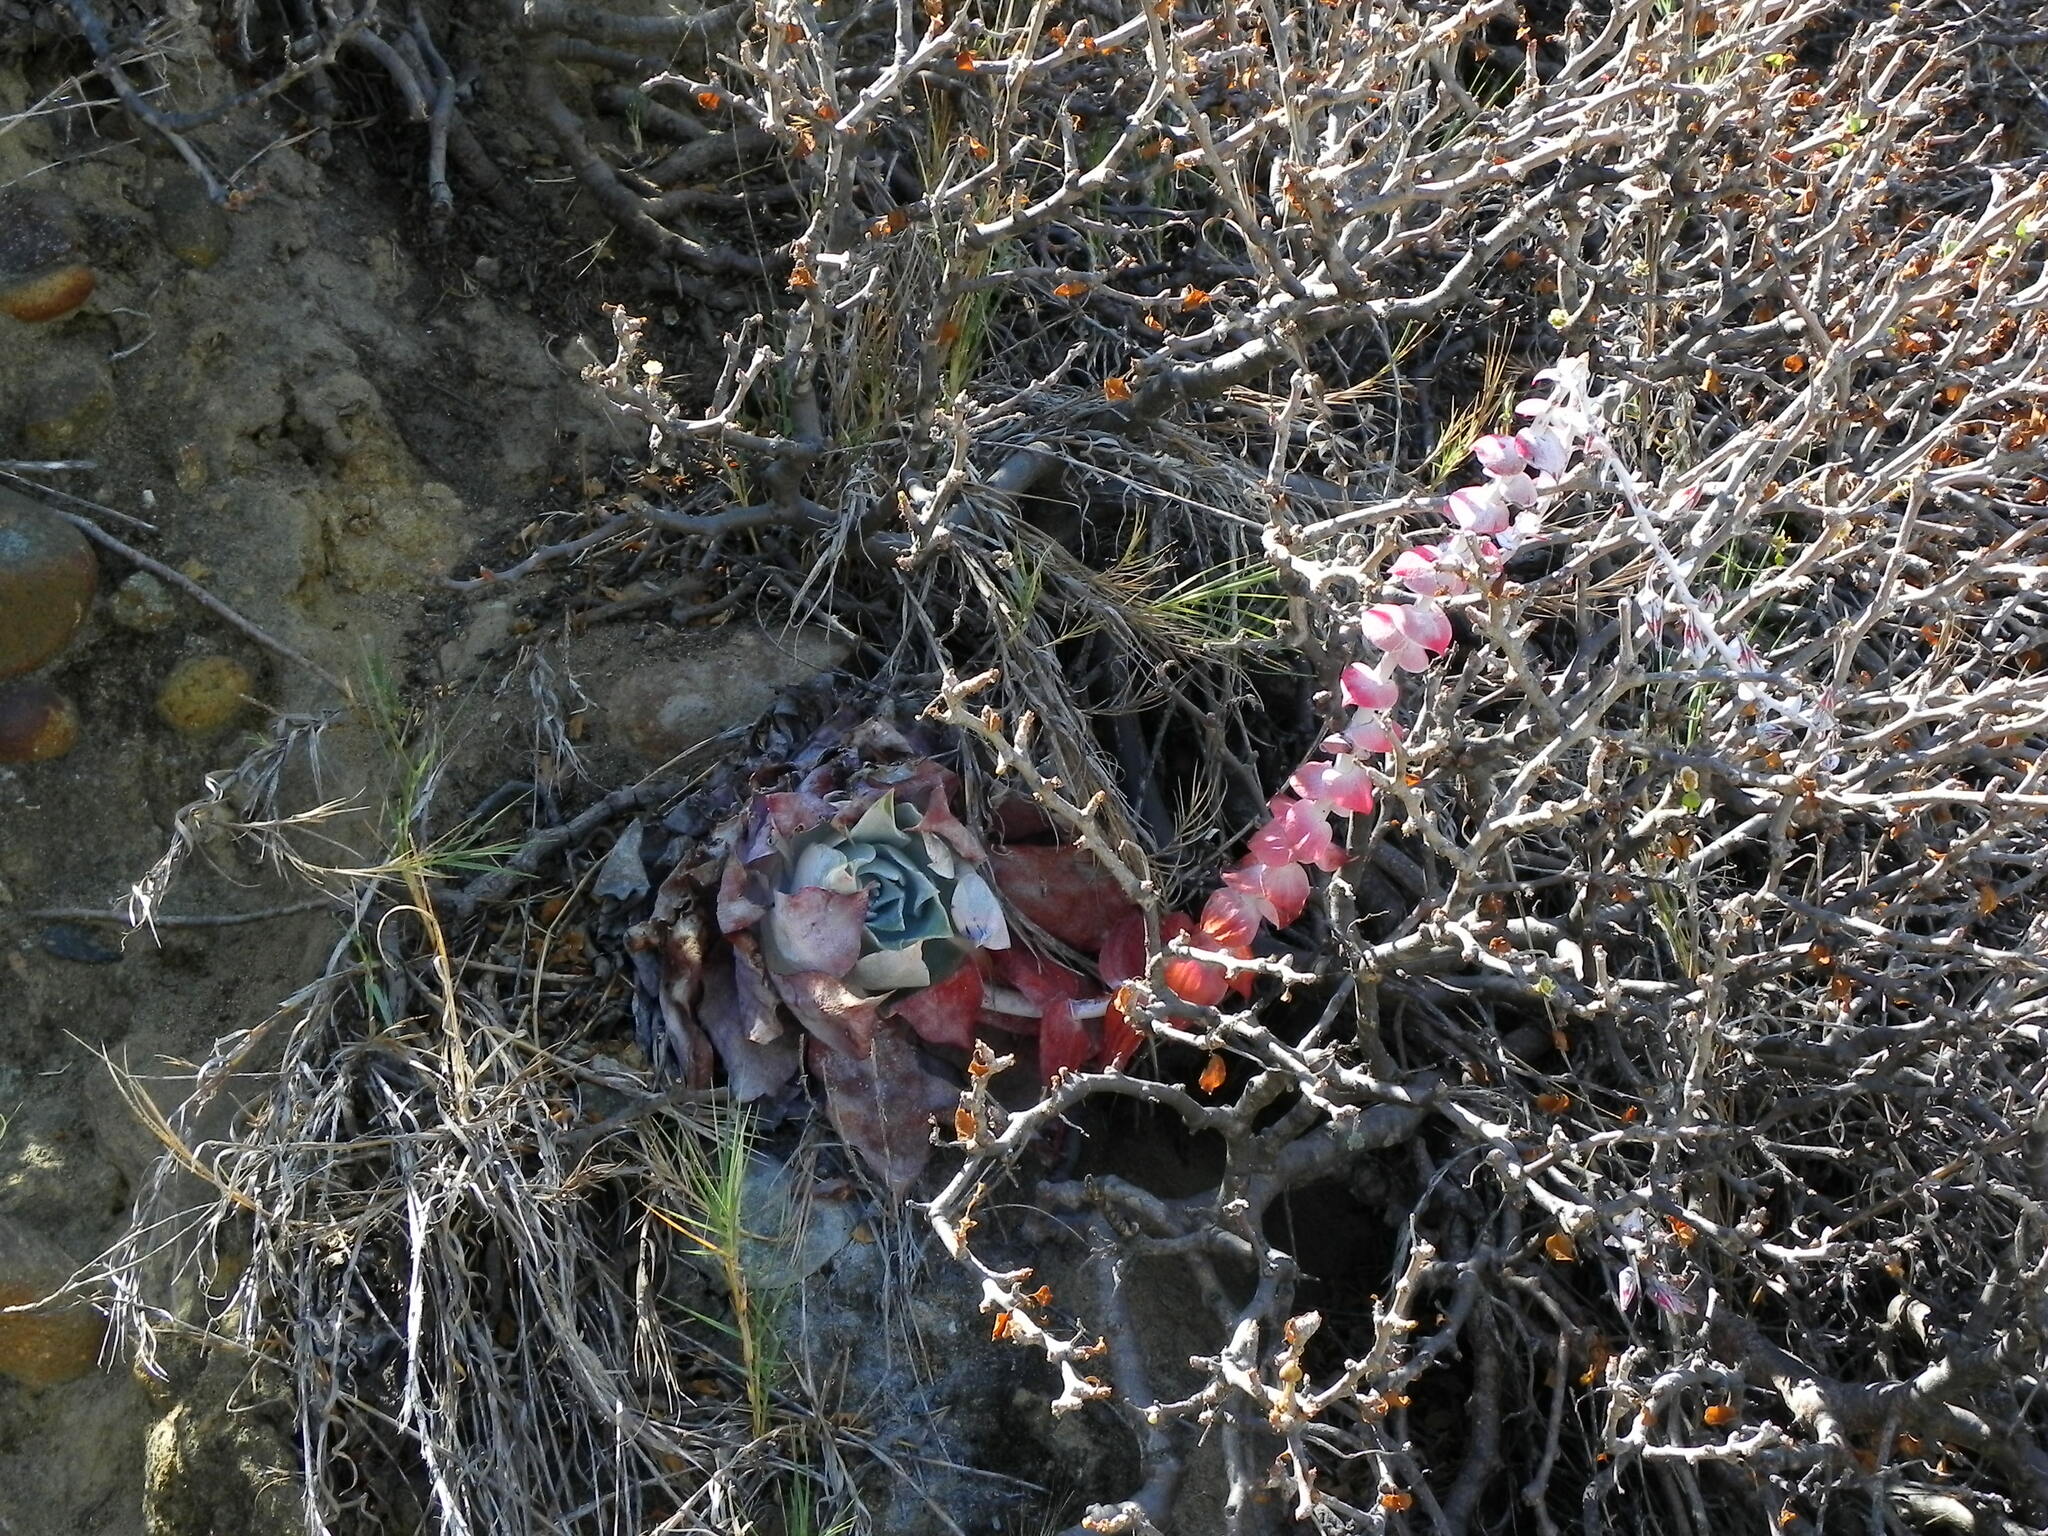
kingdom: Plantae
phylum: Tracheophyta
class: Magnoliopsida
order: Saxifragales
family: Crassulaceae
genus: Dudleya
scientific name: Dudleya pulverulenta
